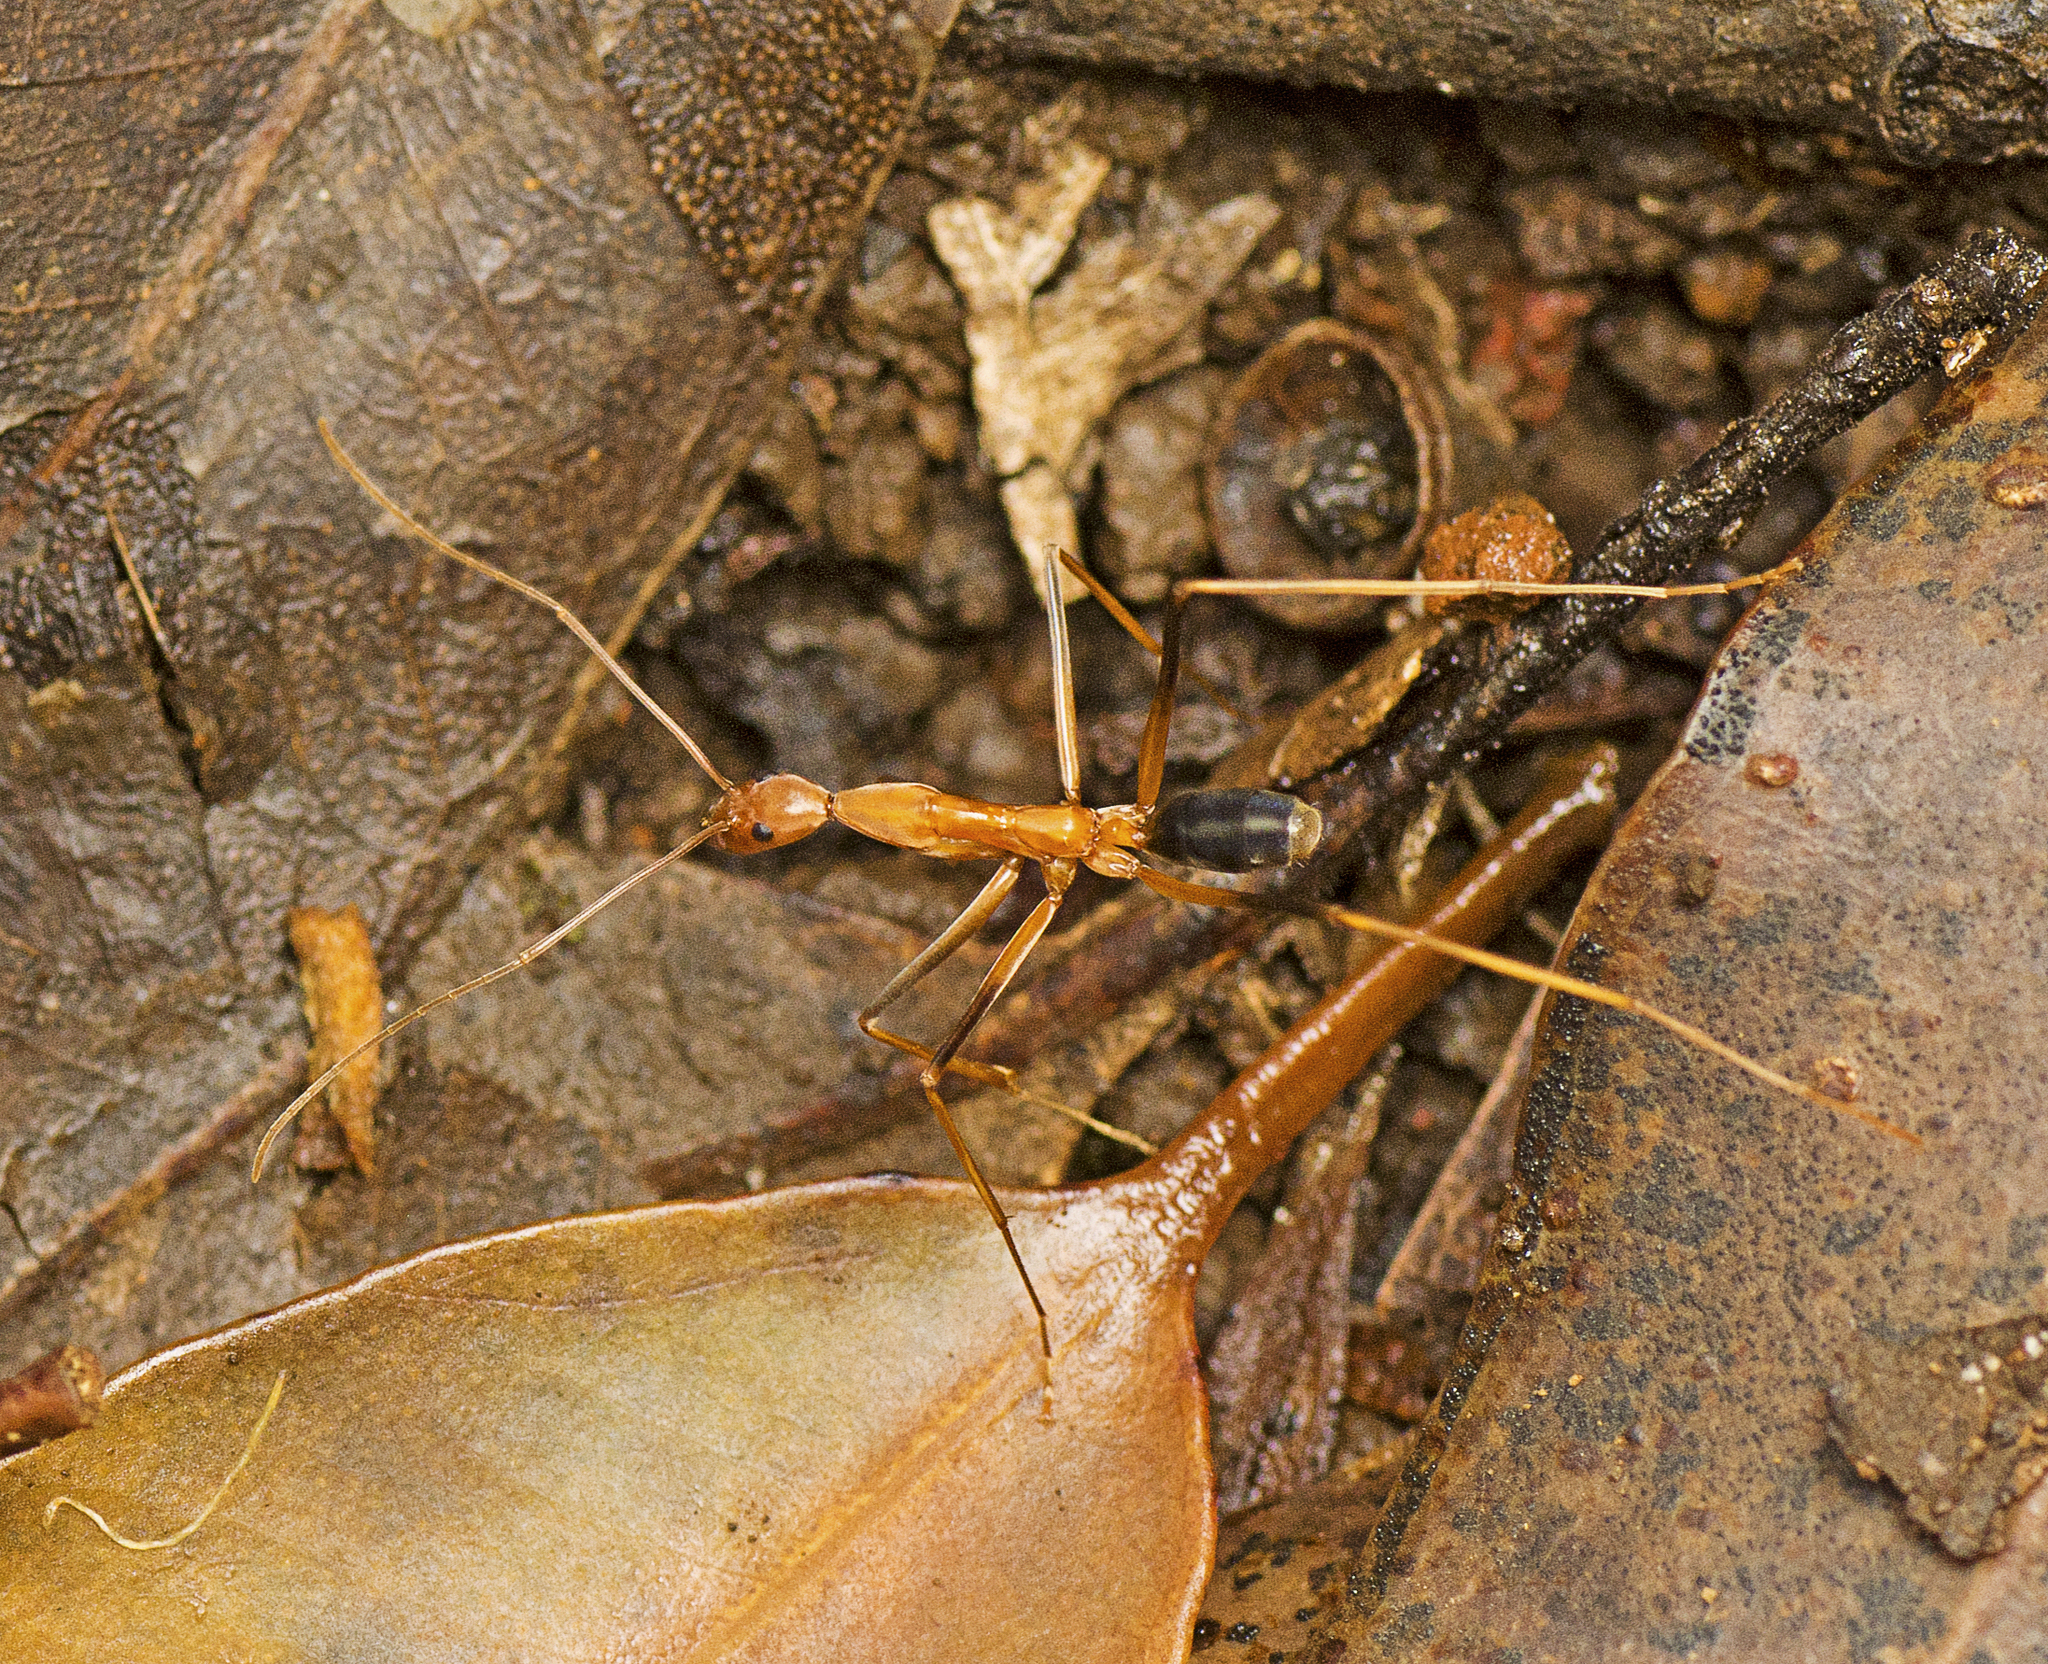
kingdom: Animalia
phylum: Arthropoda
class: Insecta
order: Hymenoptera
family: Formicidae
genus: Leptomyrmex
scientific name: Leptomyrmex rufipes
